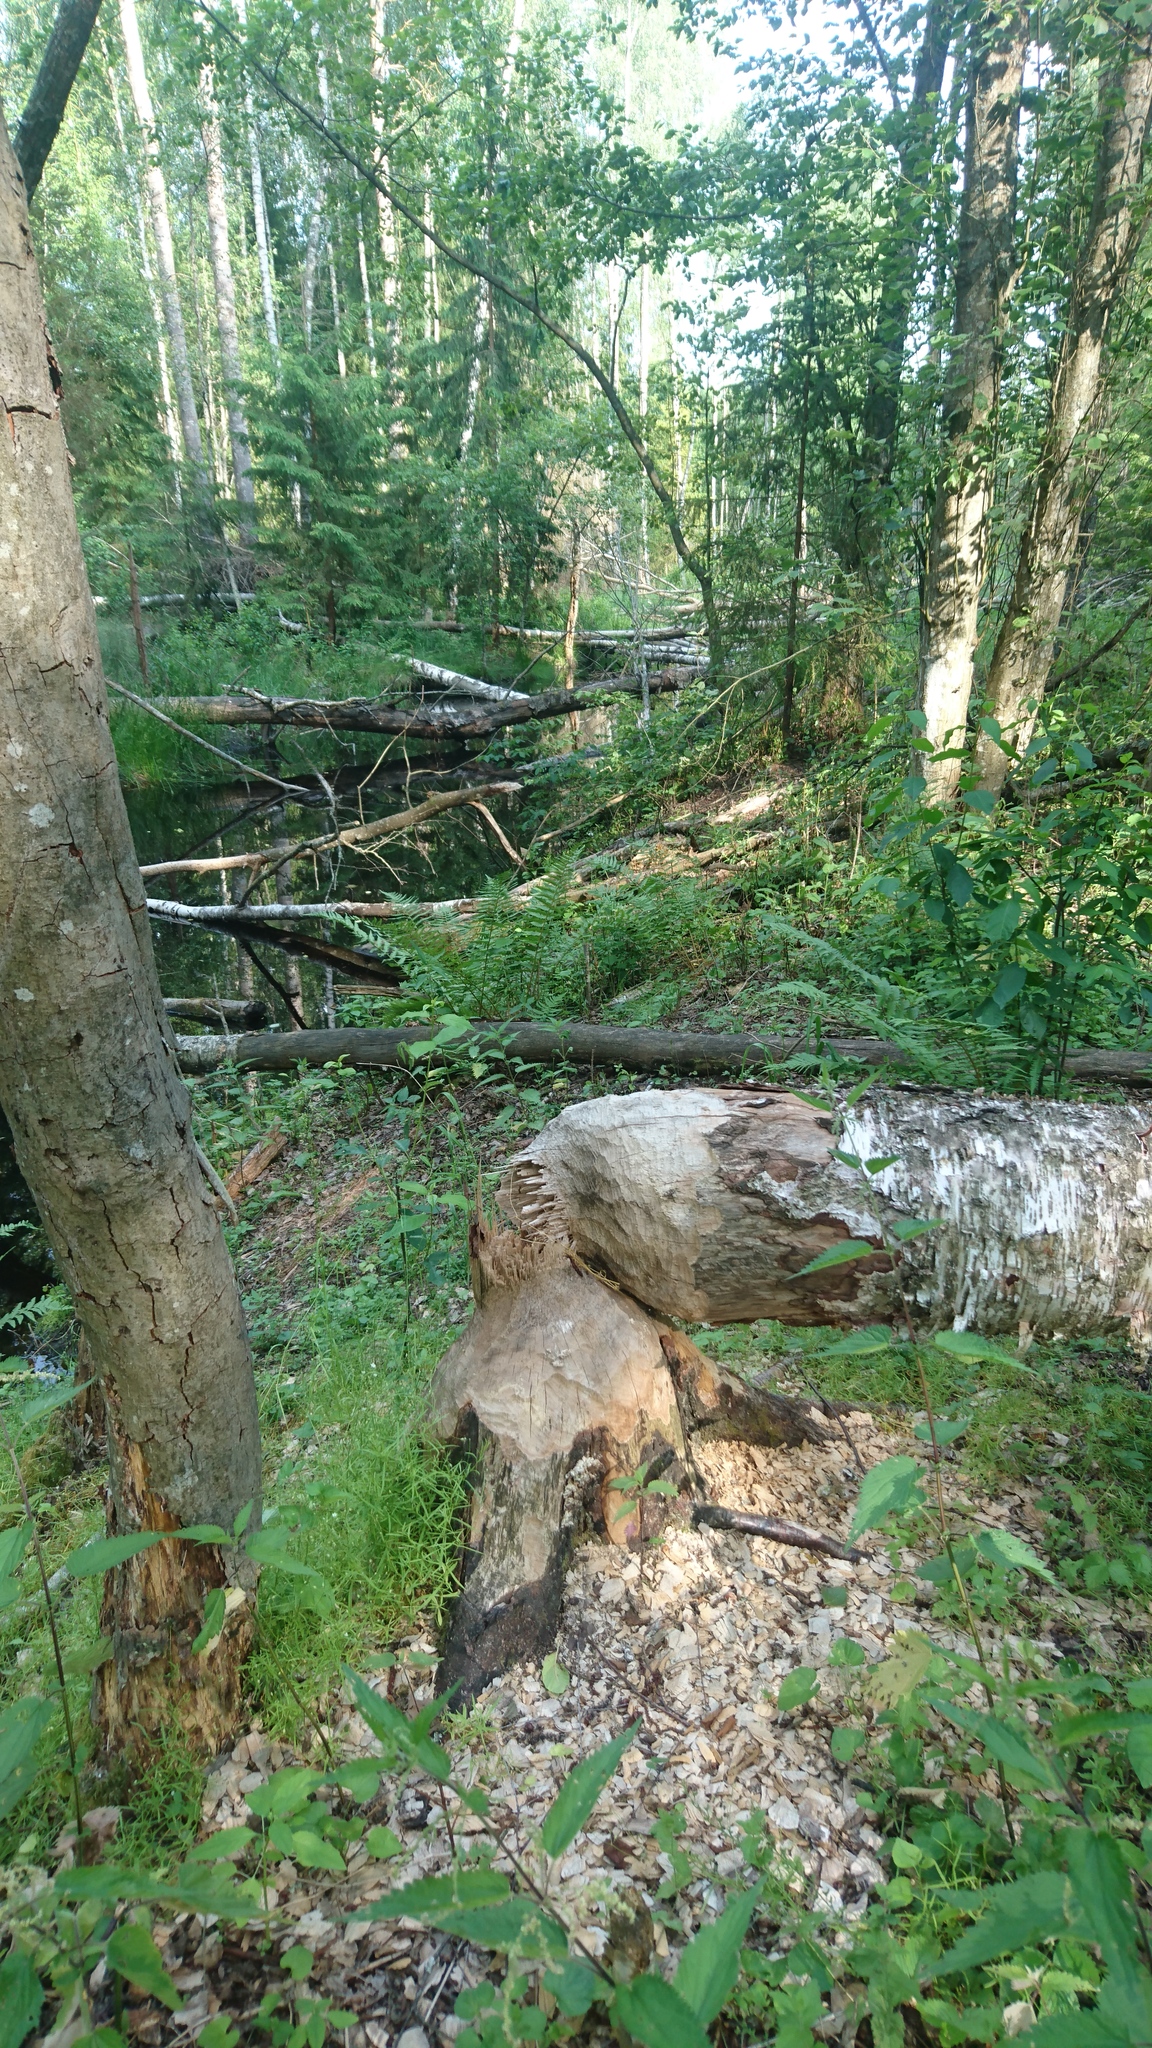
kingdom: Animalia
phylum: Chordata
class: Mammalia
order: Rodentia
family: Castoridae
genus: Castor
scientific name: Castor fiber
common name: Eurasian beaver
